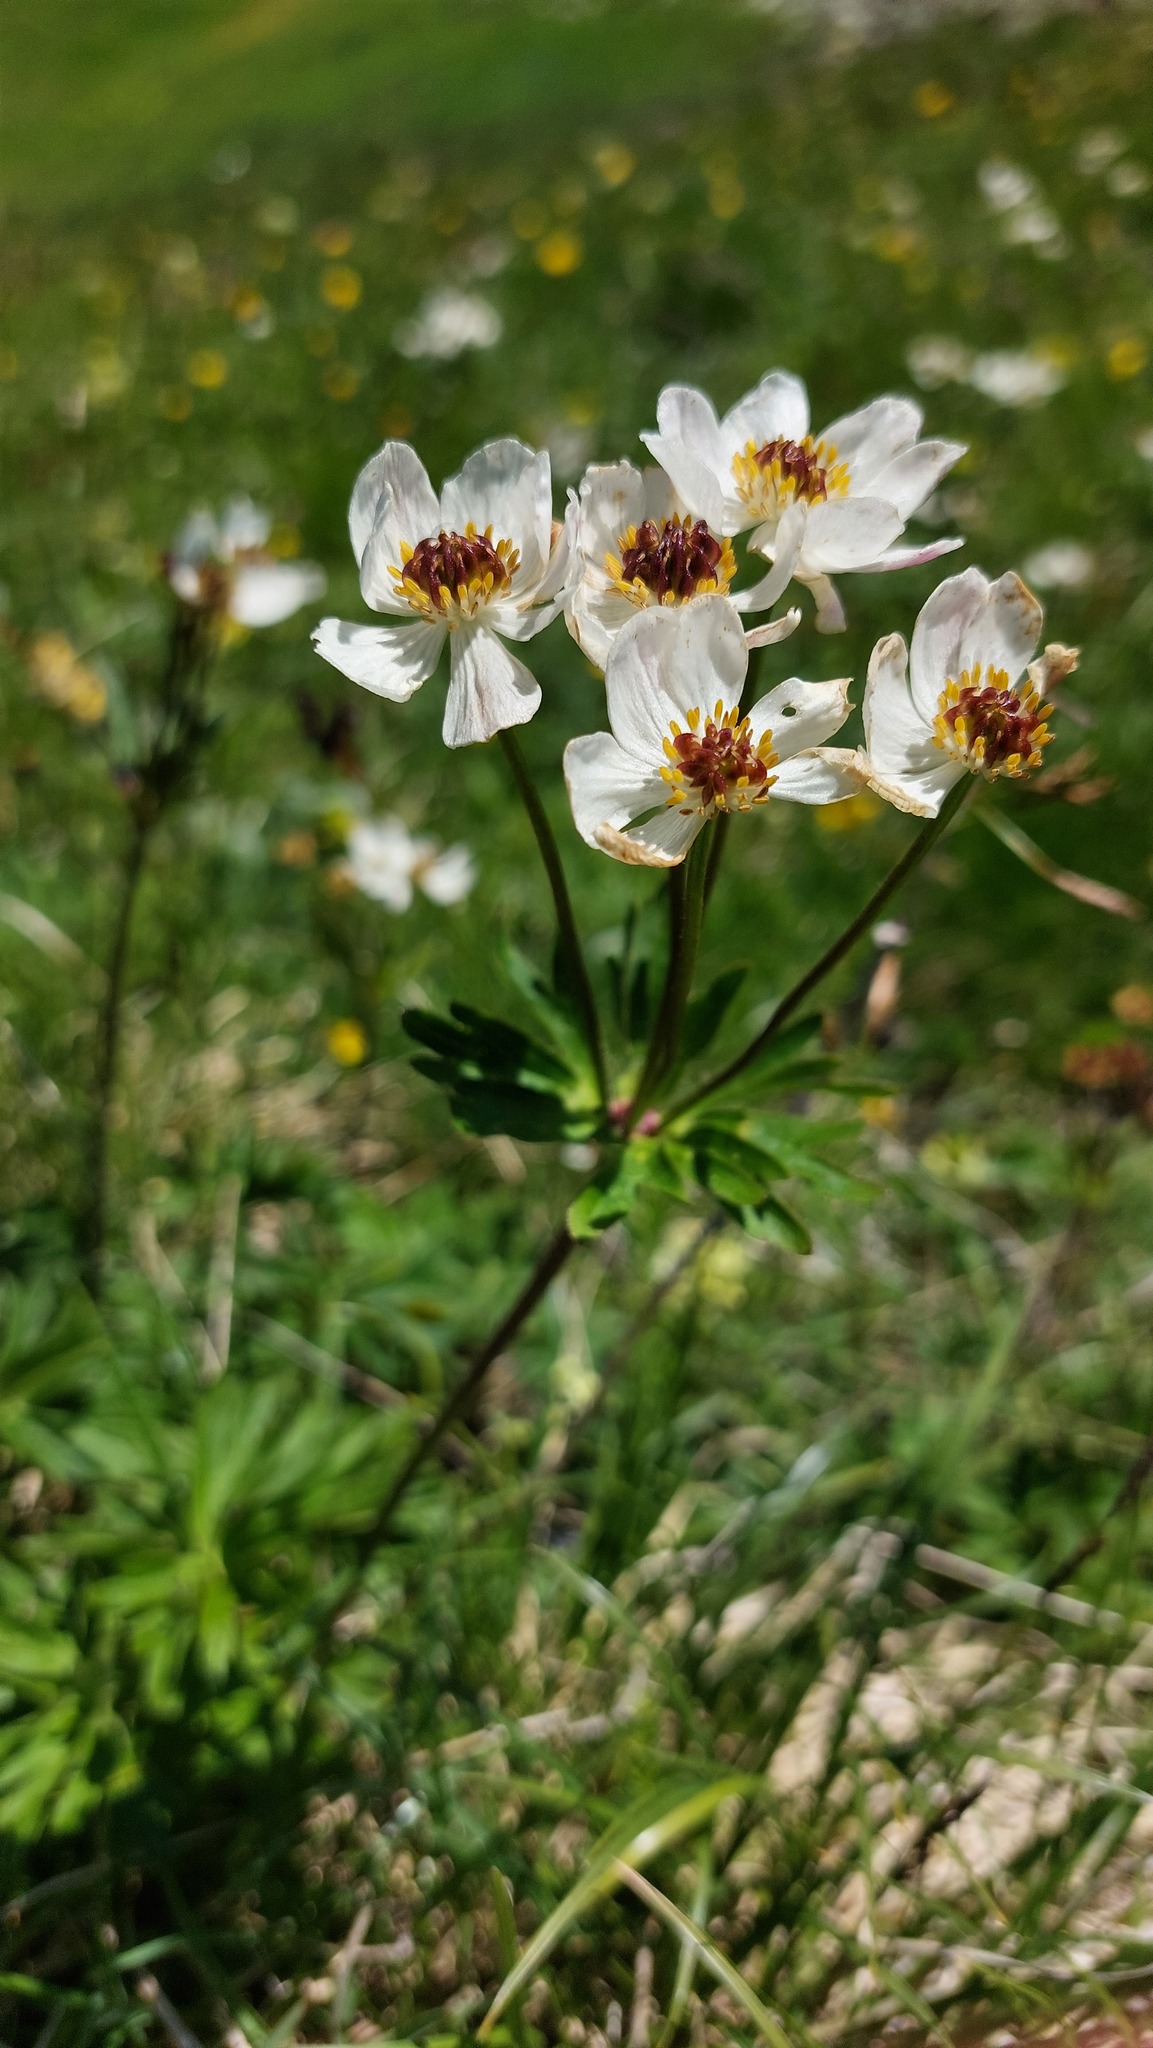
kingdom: Plantae
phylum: Tracheophyta
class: Magnoliopsida
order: Ranunculales
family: Ranunculaceae
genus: Anemonastrum
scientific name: Anemonastrum narcissiflorum
